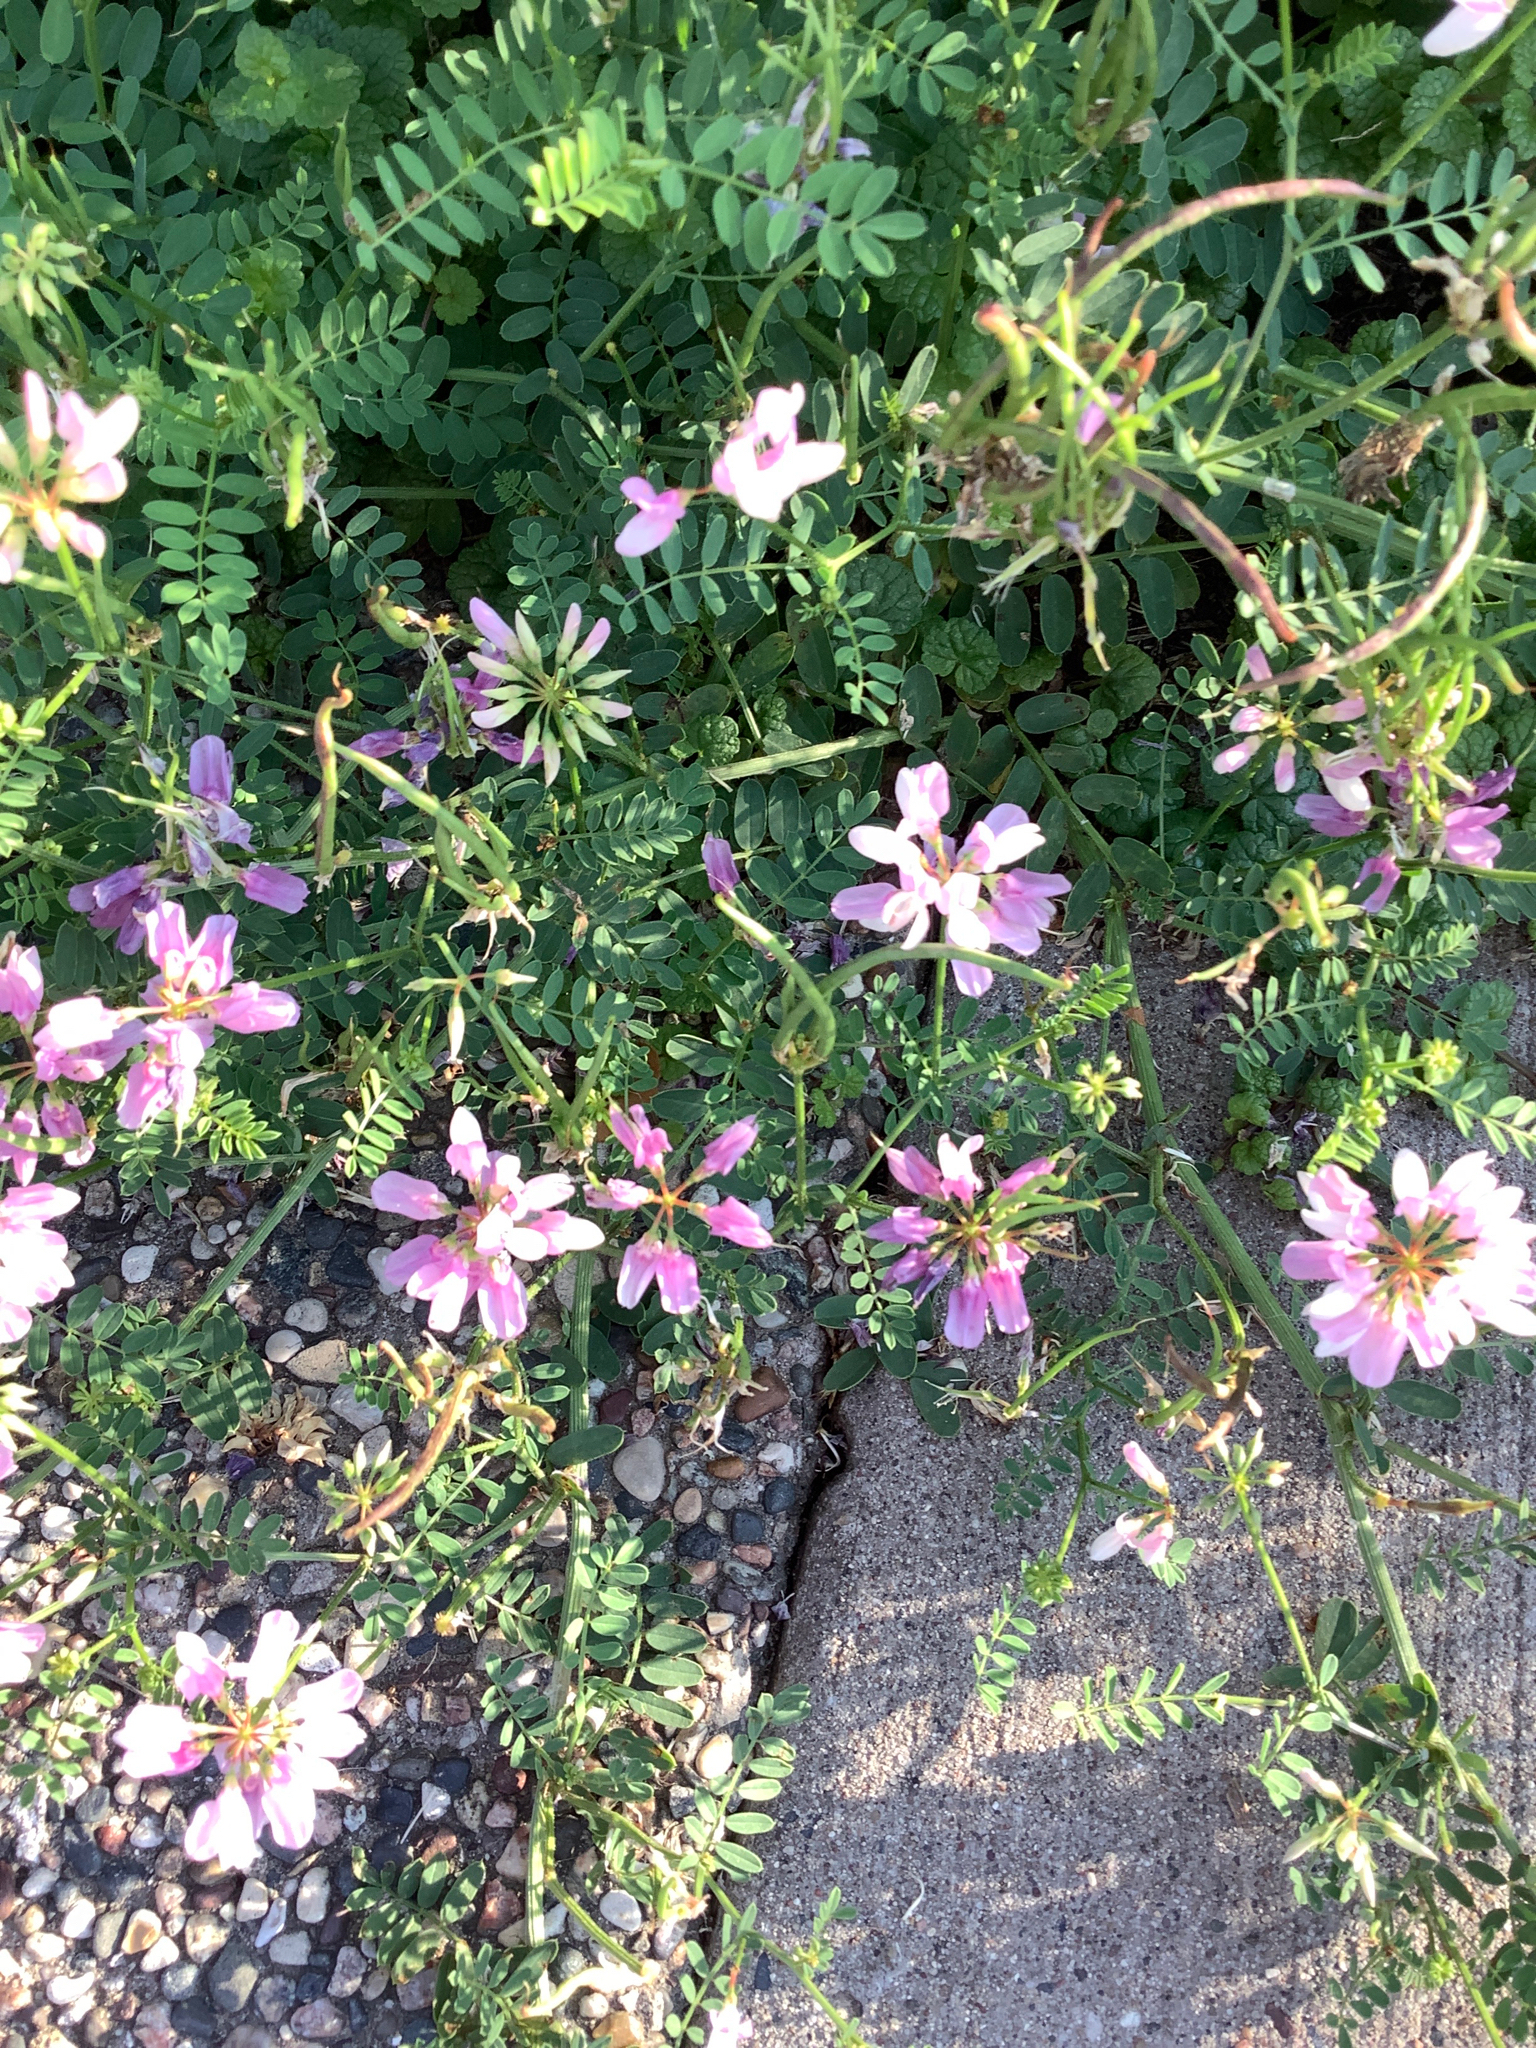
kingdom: Plantae
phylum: Tracheophyta
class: Magnoliopsida
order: Fabales
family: Fabaceae
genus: Coronilla
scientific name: Coronilla varia
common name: Crownvetch
